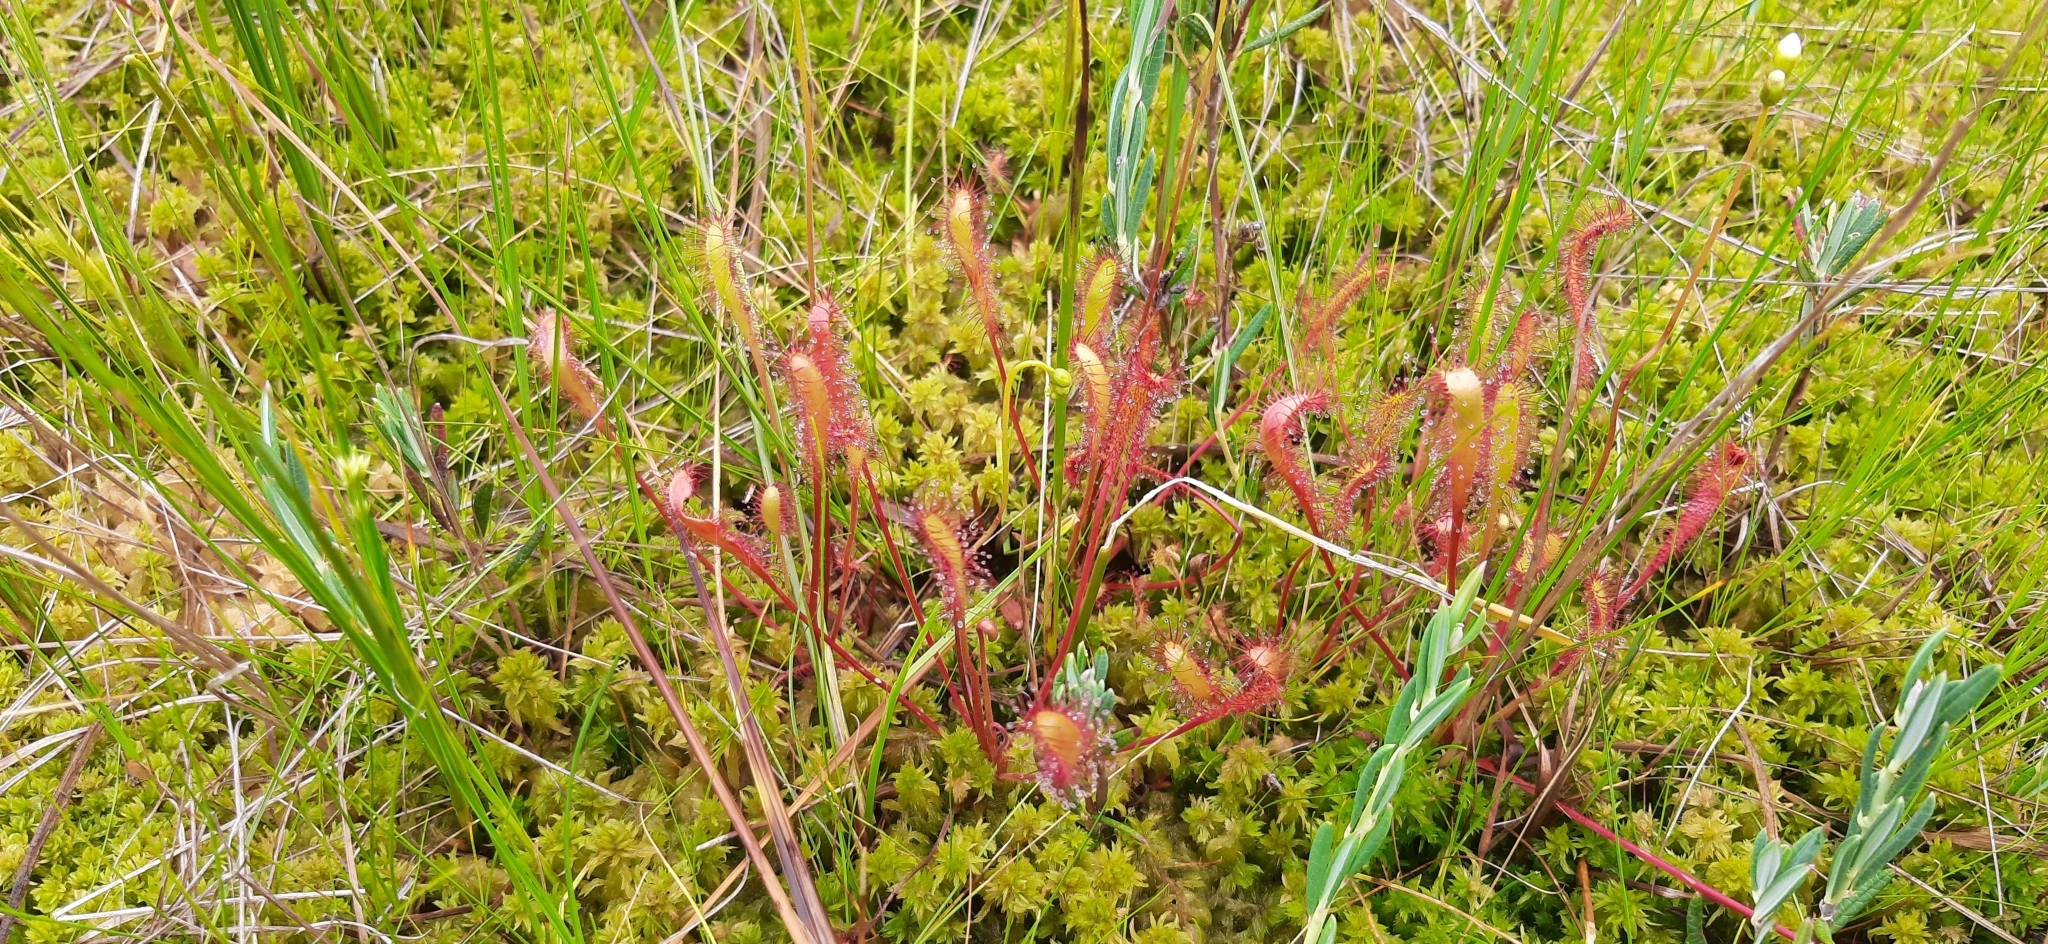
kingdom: Plantae
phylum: Tracheophyta
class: Magnoliopsida
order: Caryophyllales
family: Droseraceae
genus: Drosera
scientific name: Drosera anglica
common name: Great sundew
